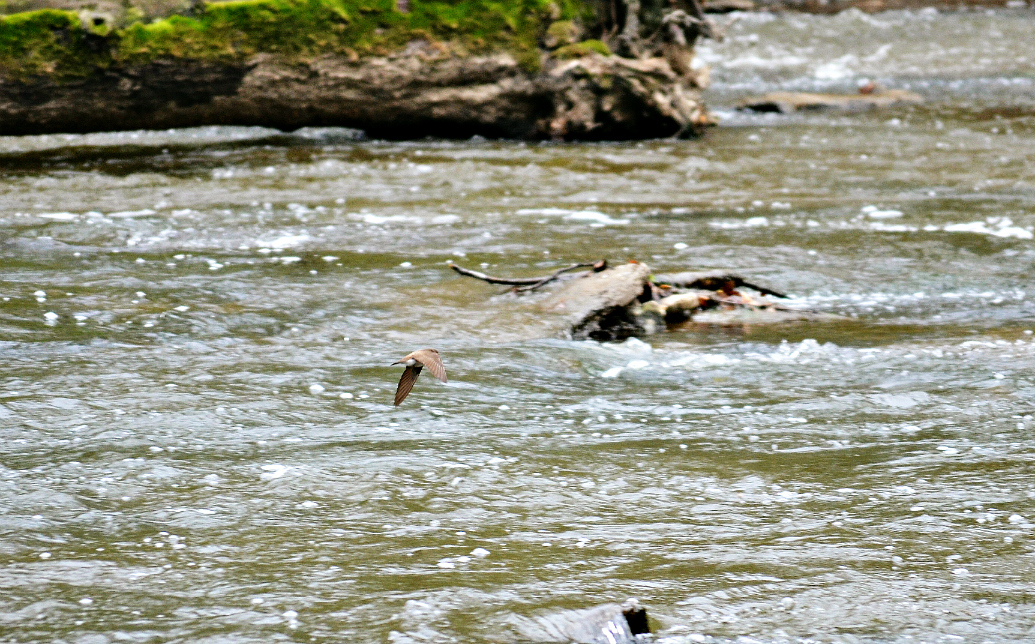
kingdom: Animalia
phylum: Chordata
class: Aves
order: Passeriformes
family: Hirundinidae
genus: Stelgidopteryx
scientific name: Stelgidopteryx serripennis
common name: Northern rough-winged swallow
